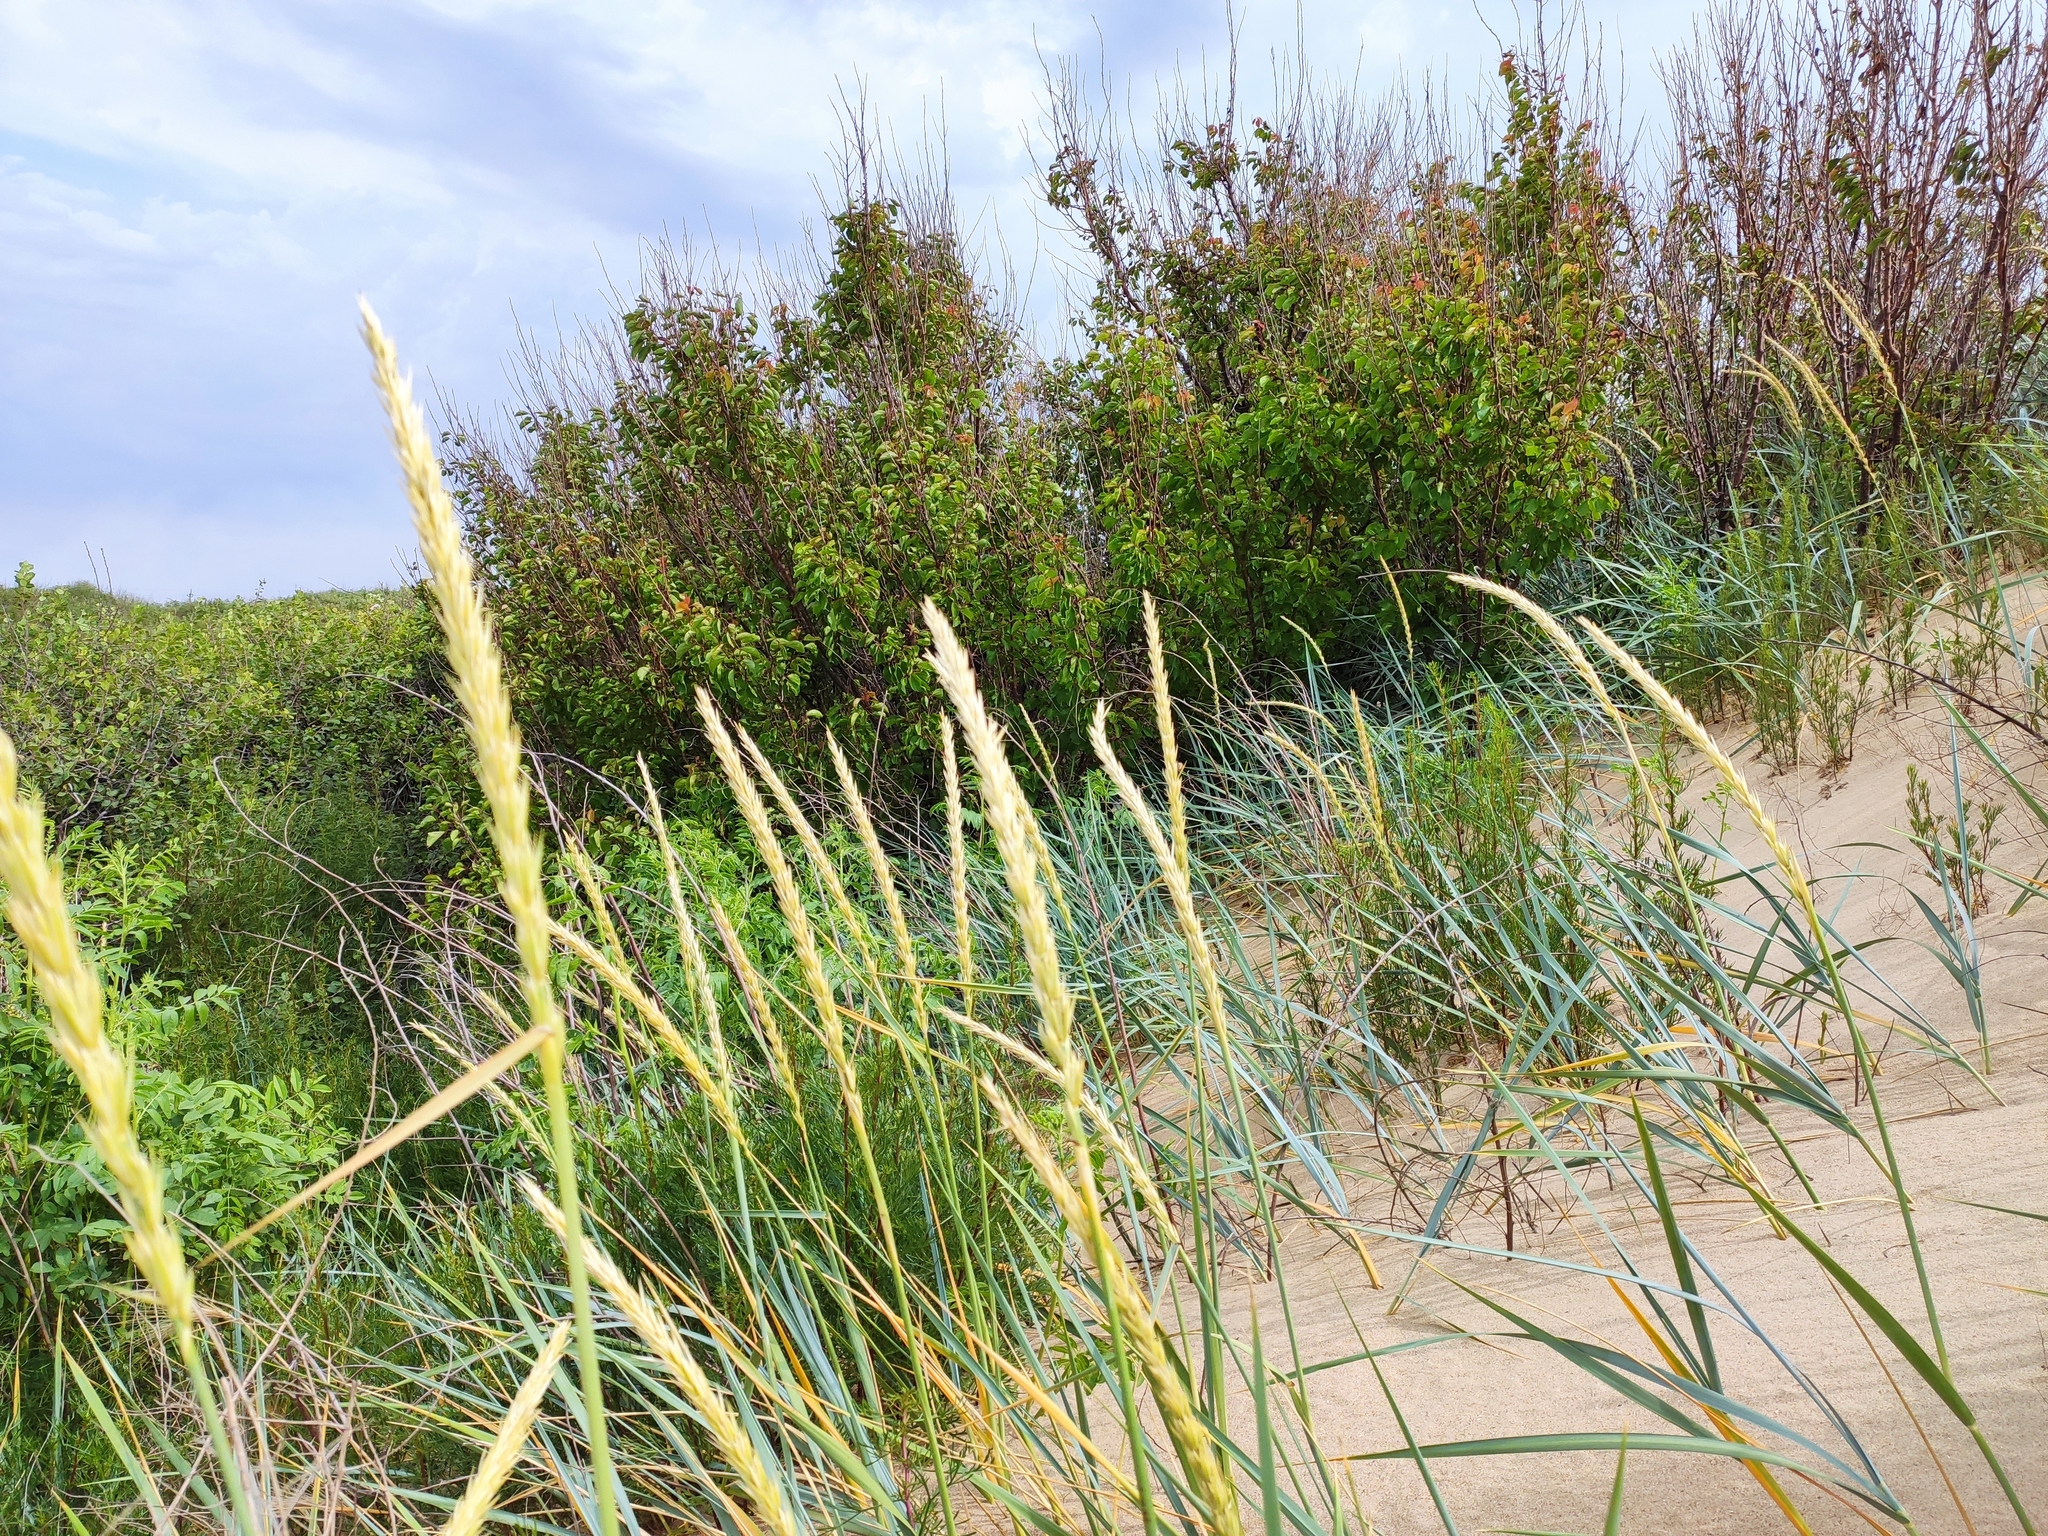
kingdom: Plantae
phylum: Tracheophyta
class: Liliopsida
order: Poales
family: Poaceae
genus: Leymus
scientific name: Leymus racemosus
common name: Mammoth wildrye
